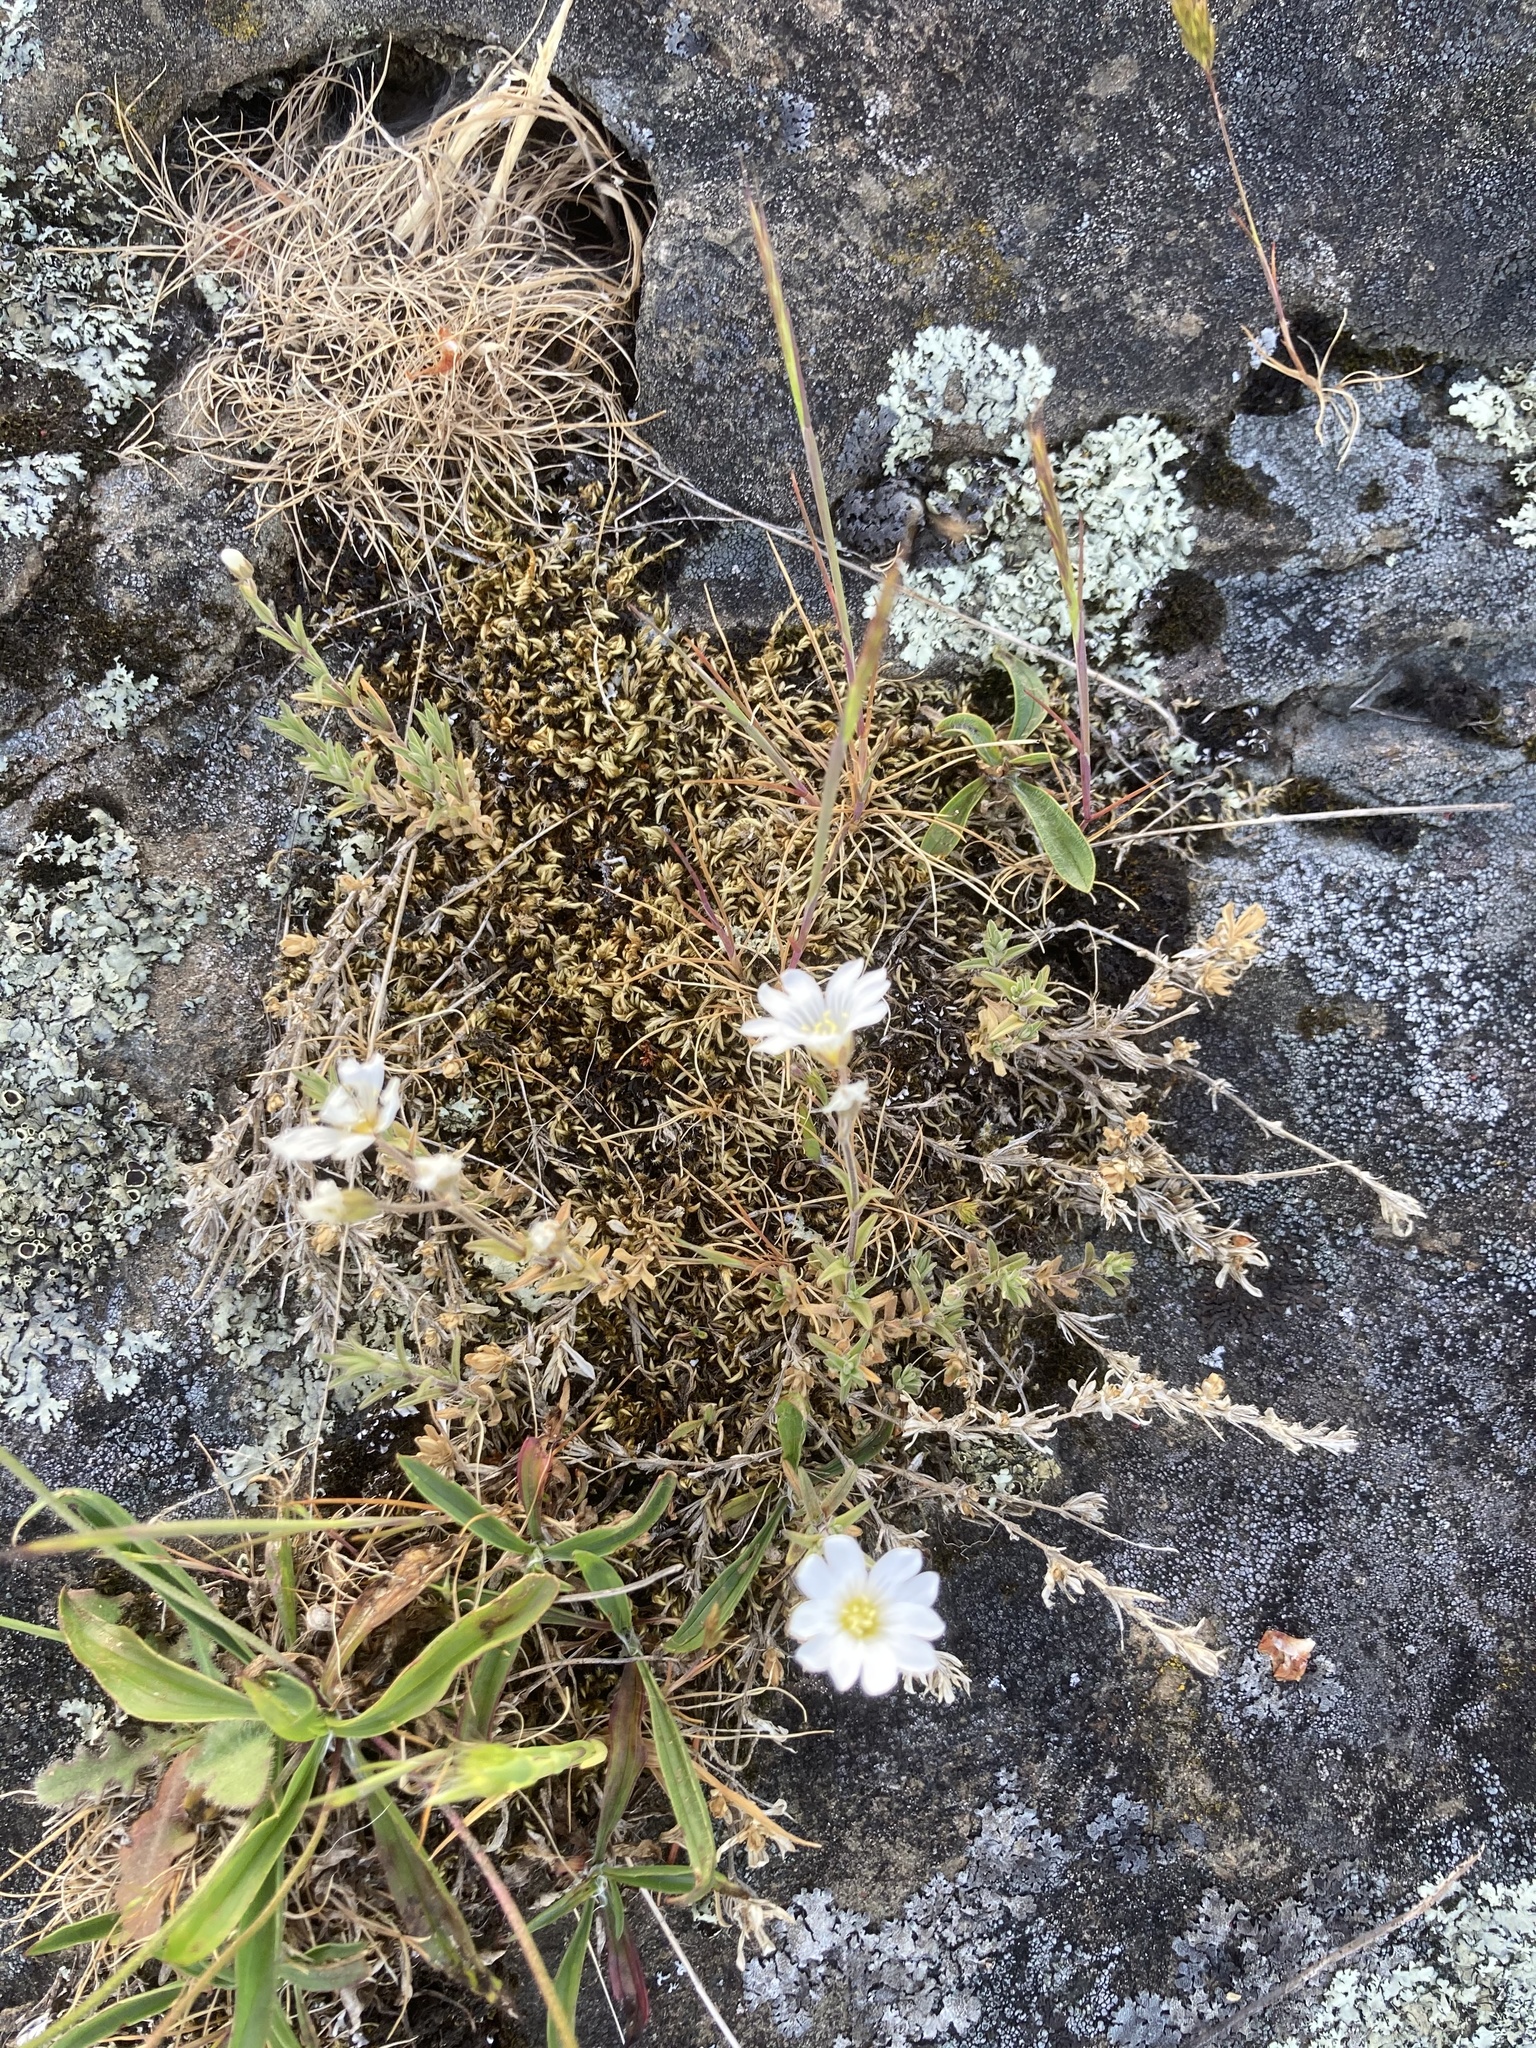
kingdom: Plantae
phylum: Tracheophyta
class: Magnoliopsida
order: Caryophyllales
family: Caryophyllaceae
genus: Cerastium
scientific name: Cerastium arvense
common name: Field mouse-ear
